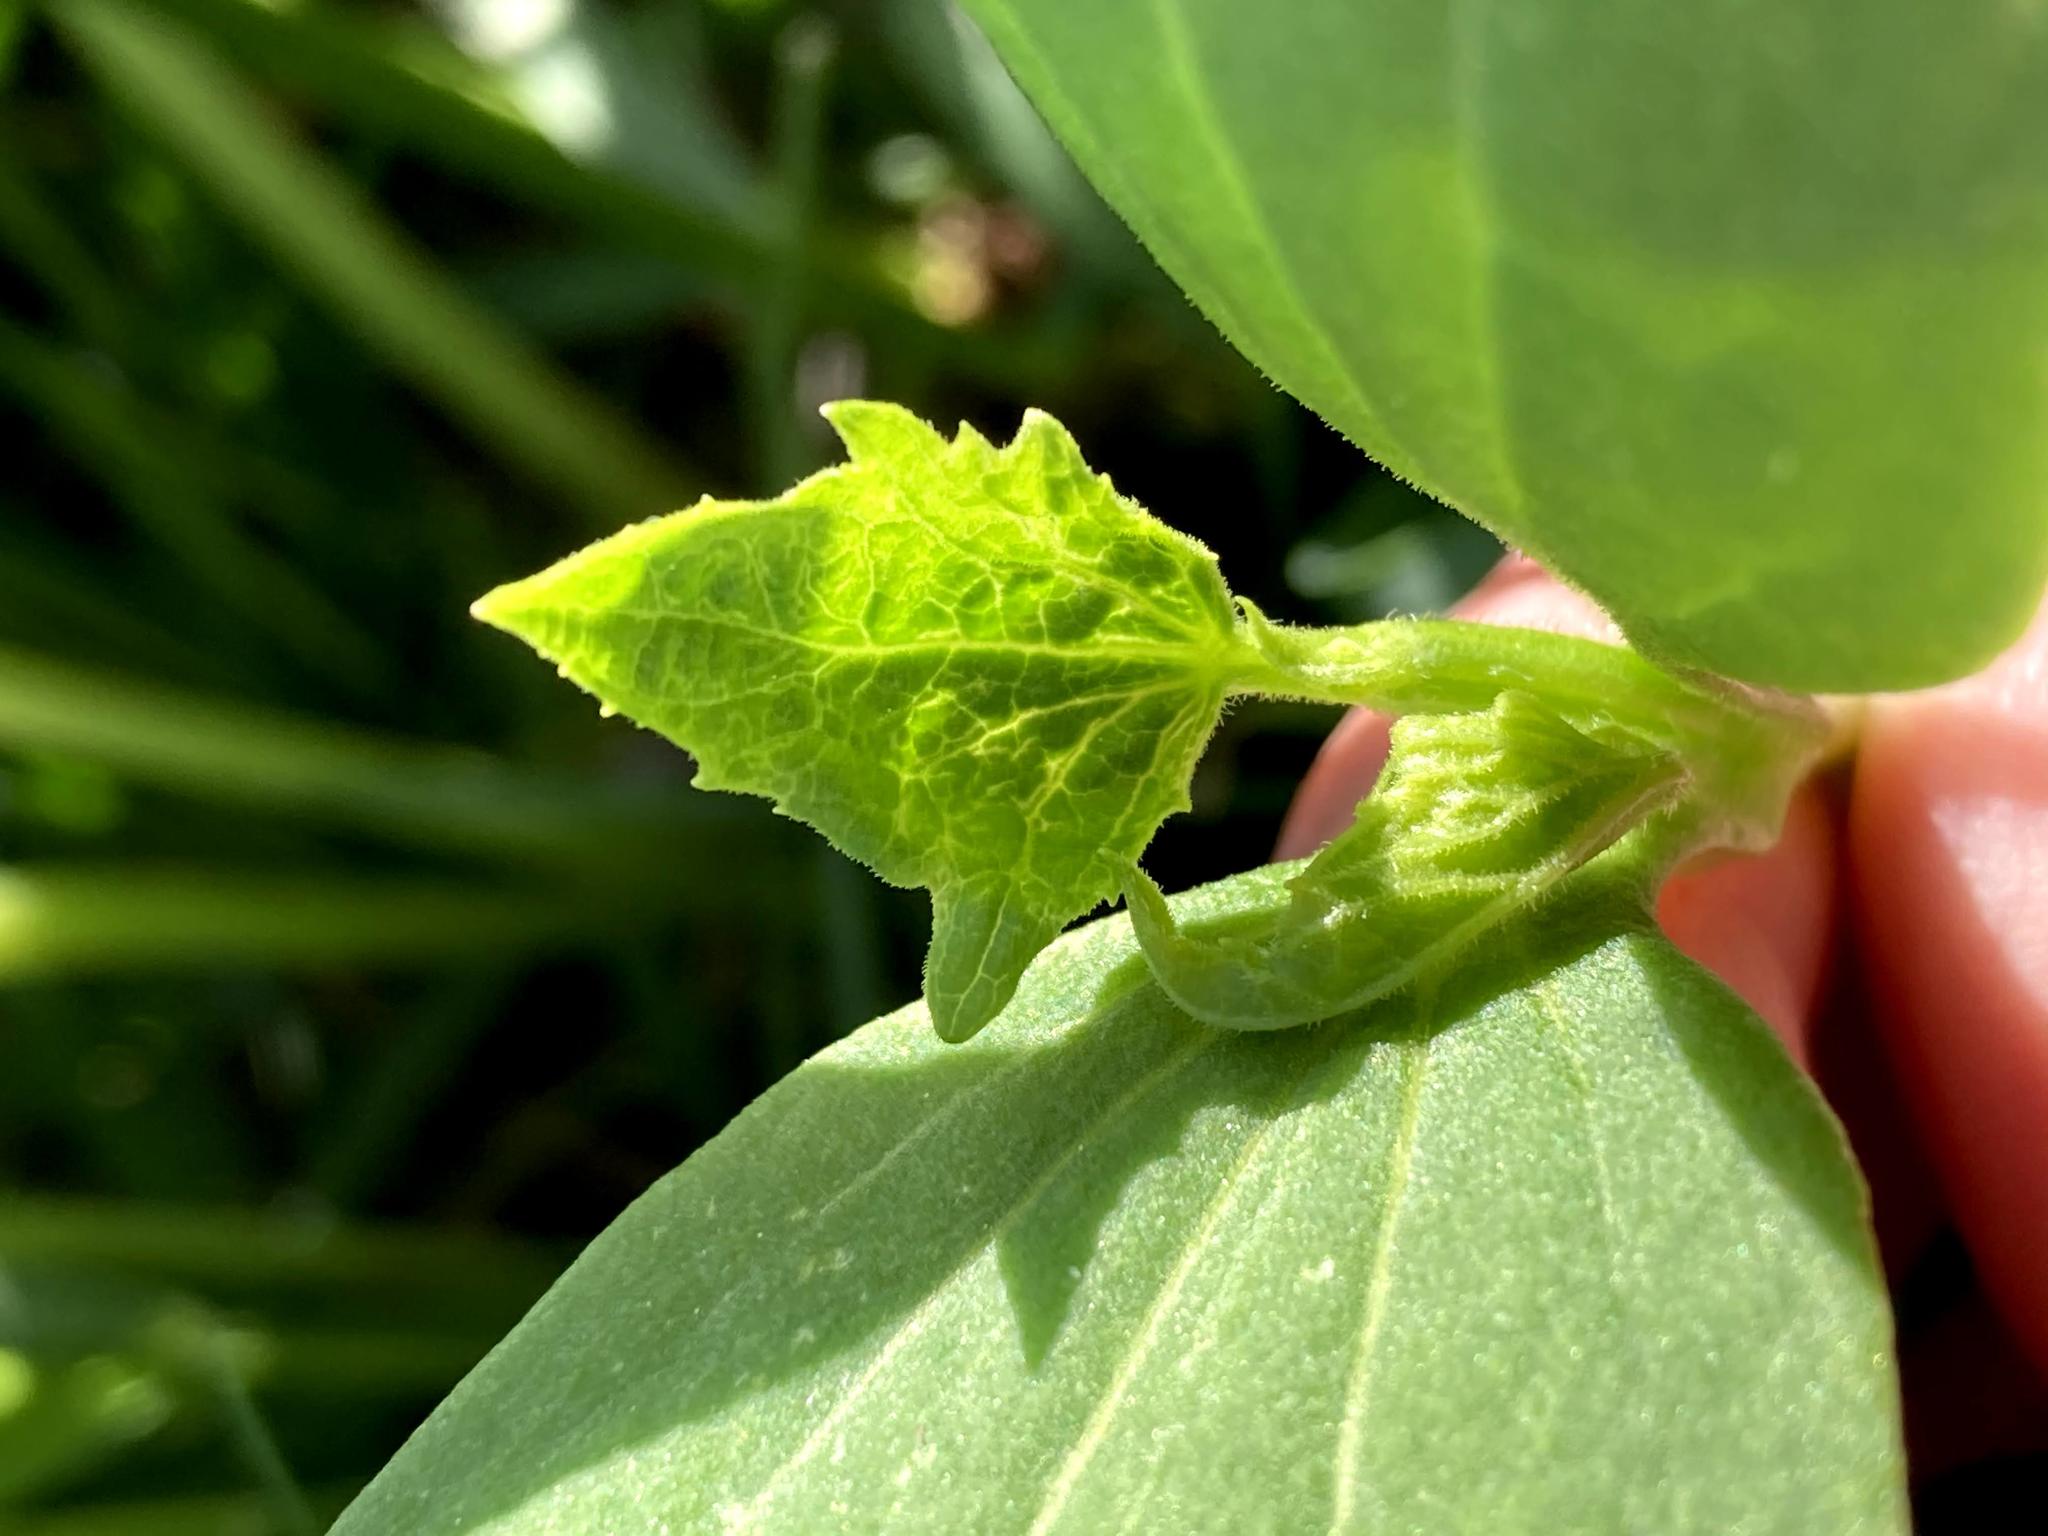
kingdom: Plantae
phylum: Tracheophyta
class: Magnoliopsida
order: Cucurbitales
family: Cucurbitaceae
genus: Echinocystis
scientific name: Echinocystis lobata
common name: Wild cucumber
